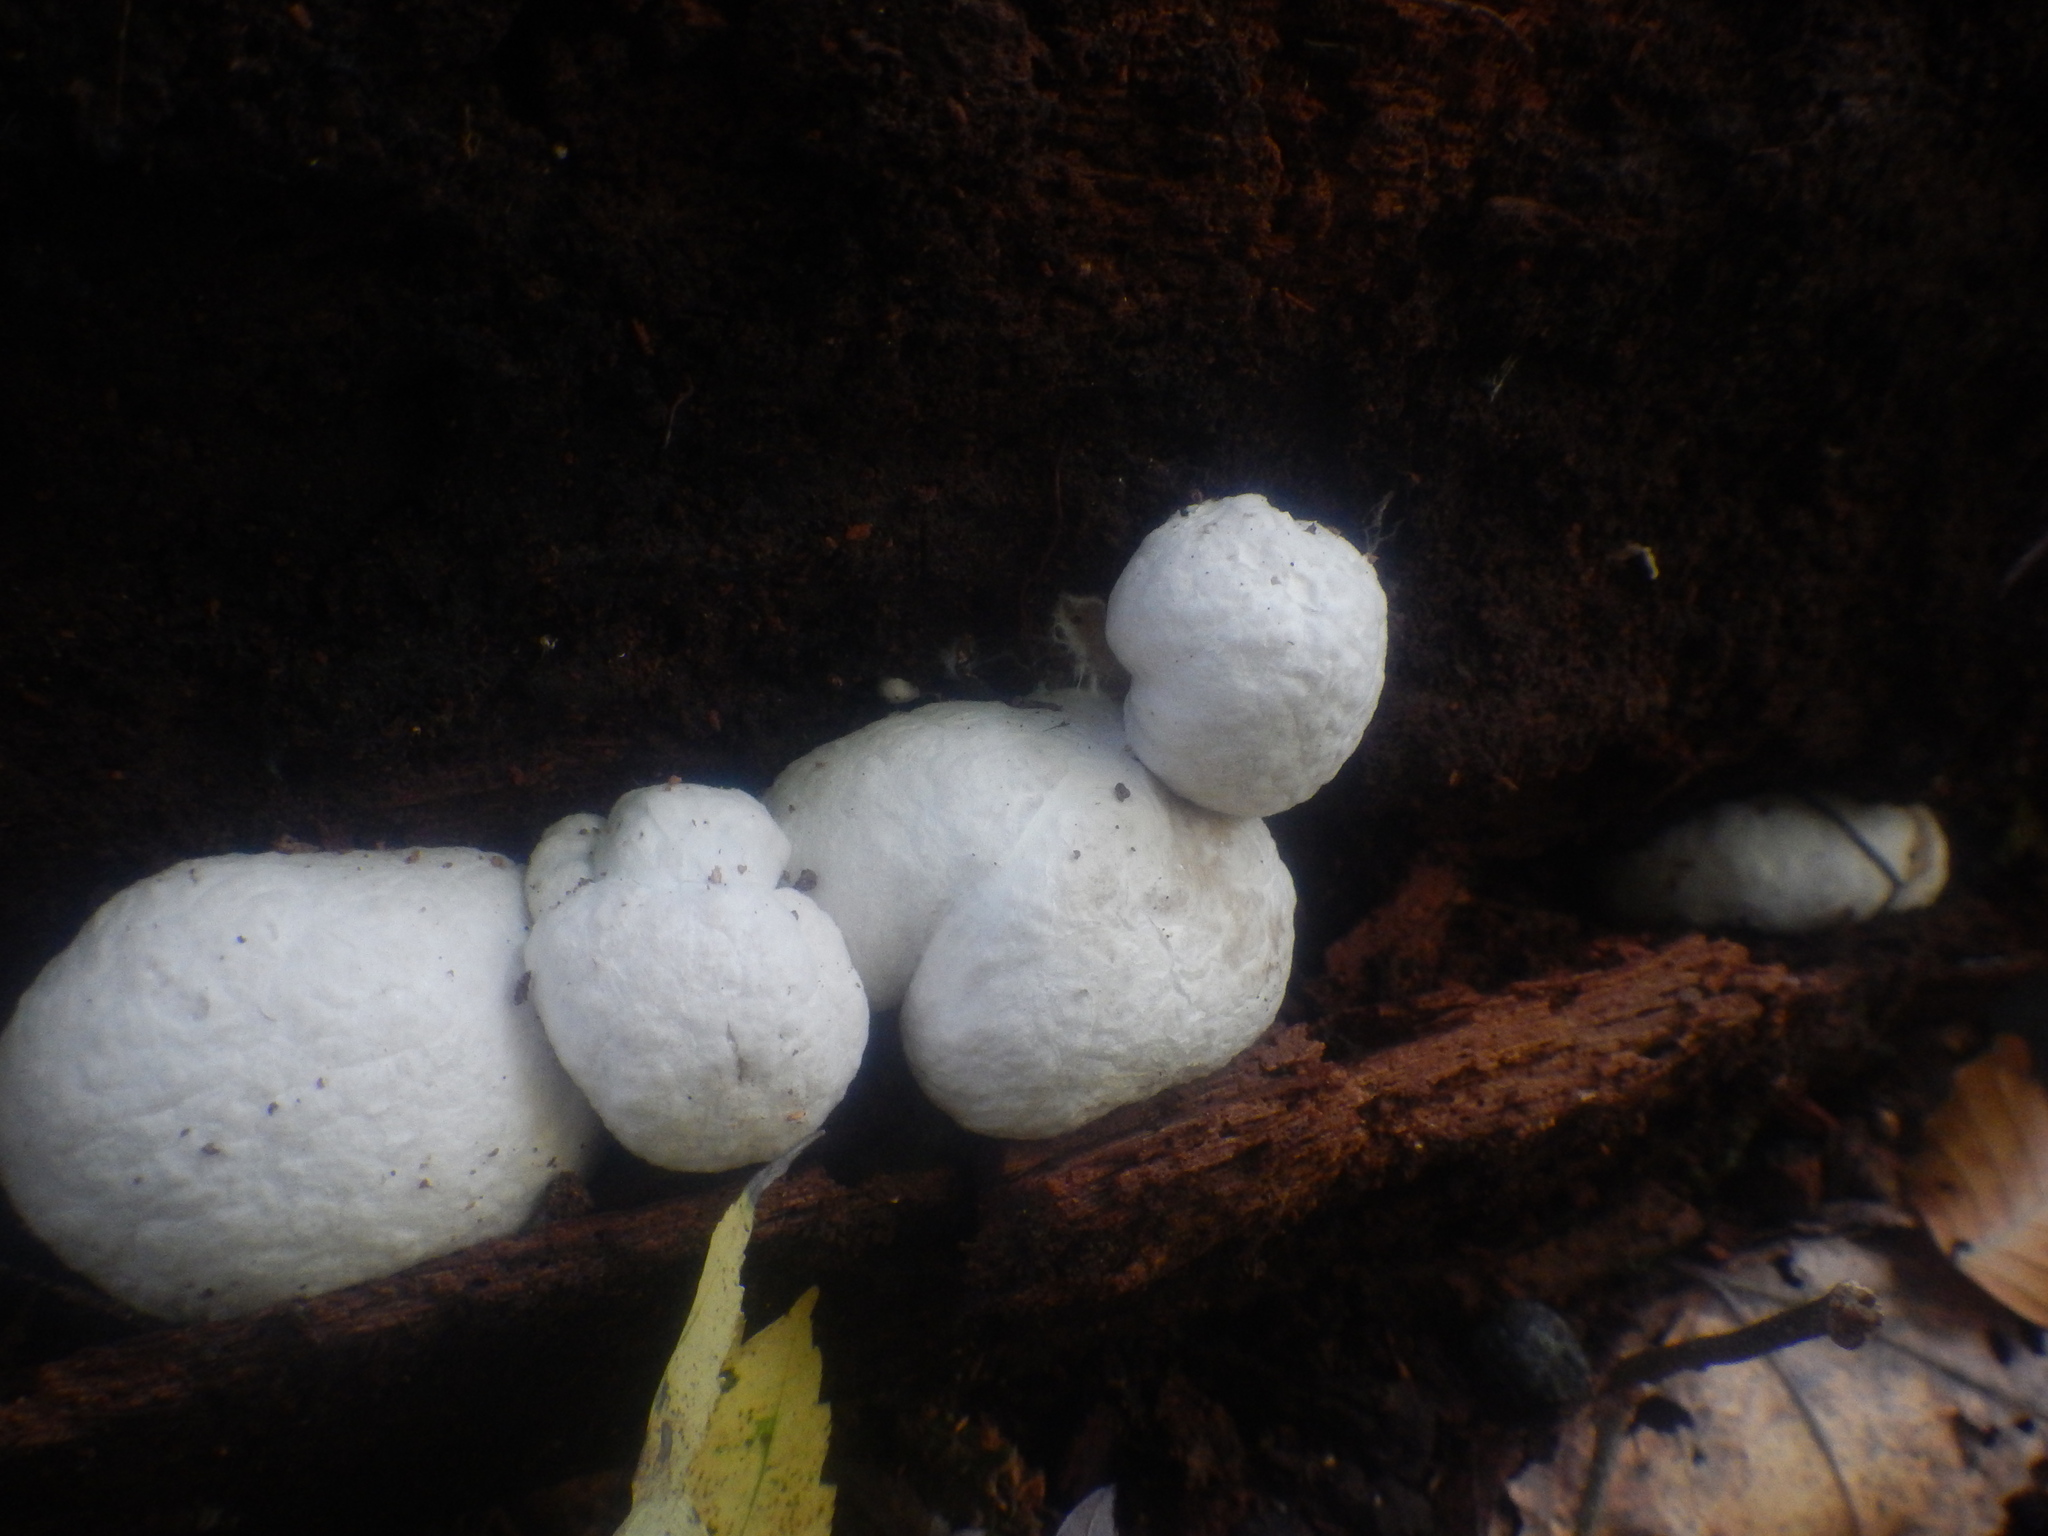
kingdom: Fungi
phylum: Basidiomycota
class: Agaricomycetes
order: Agaricales
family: Entolomataceae
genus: Entoloma
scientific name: Entoloma abortivum
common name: Aborted entoloma
